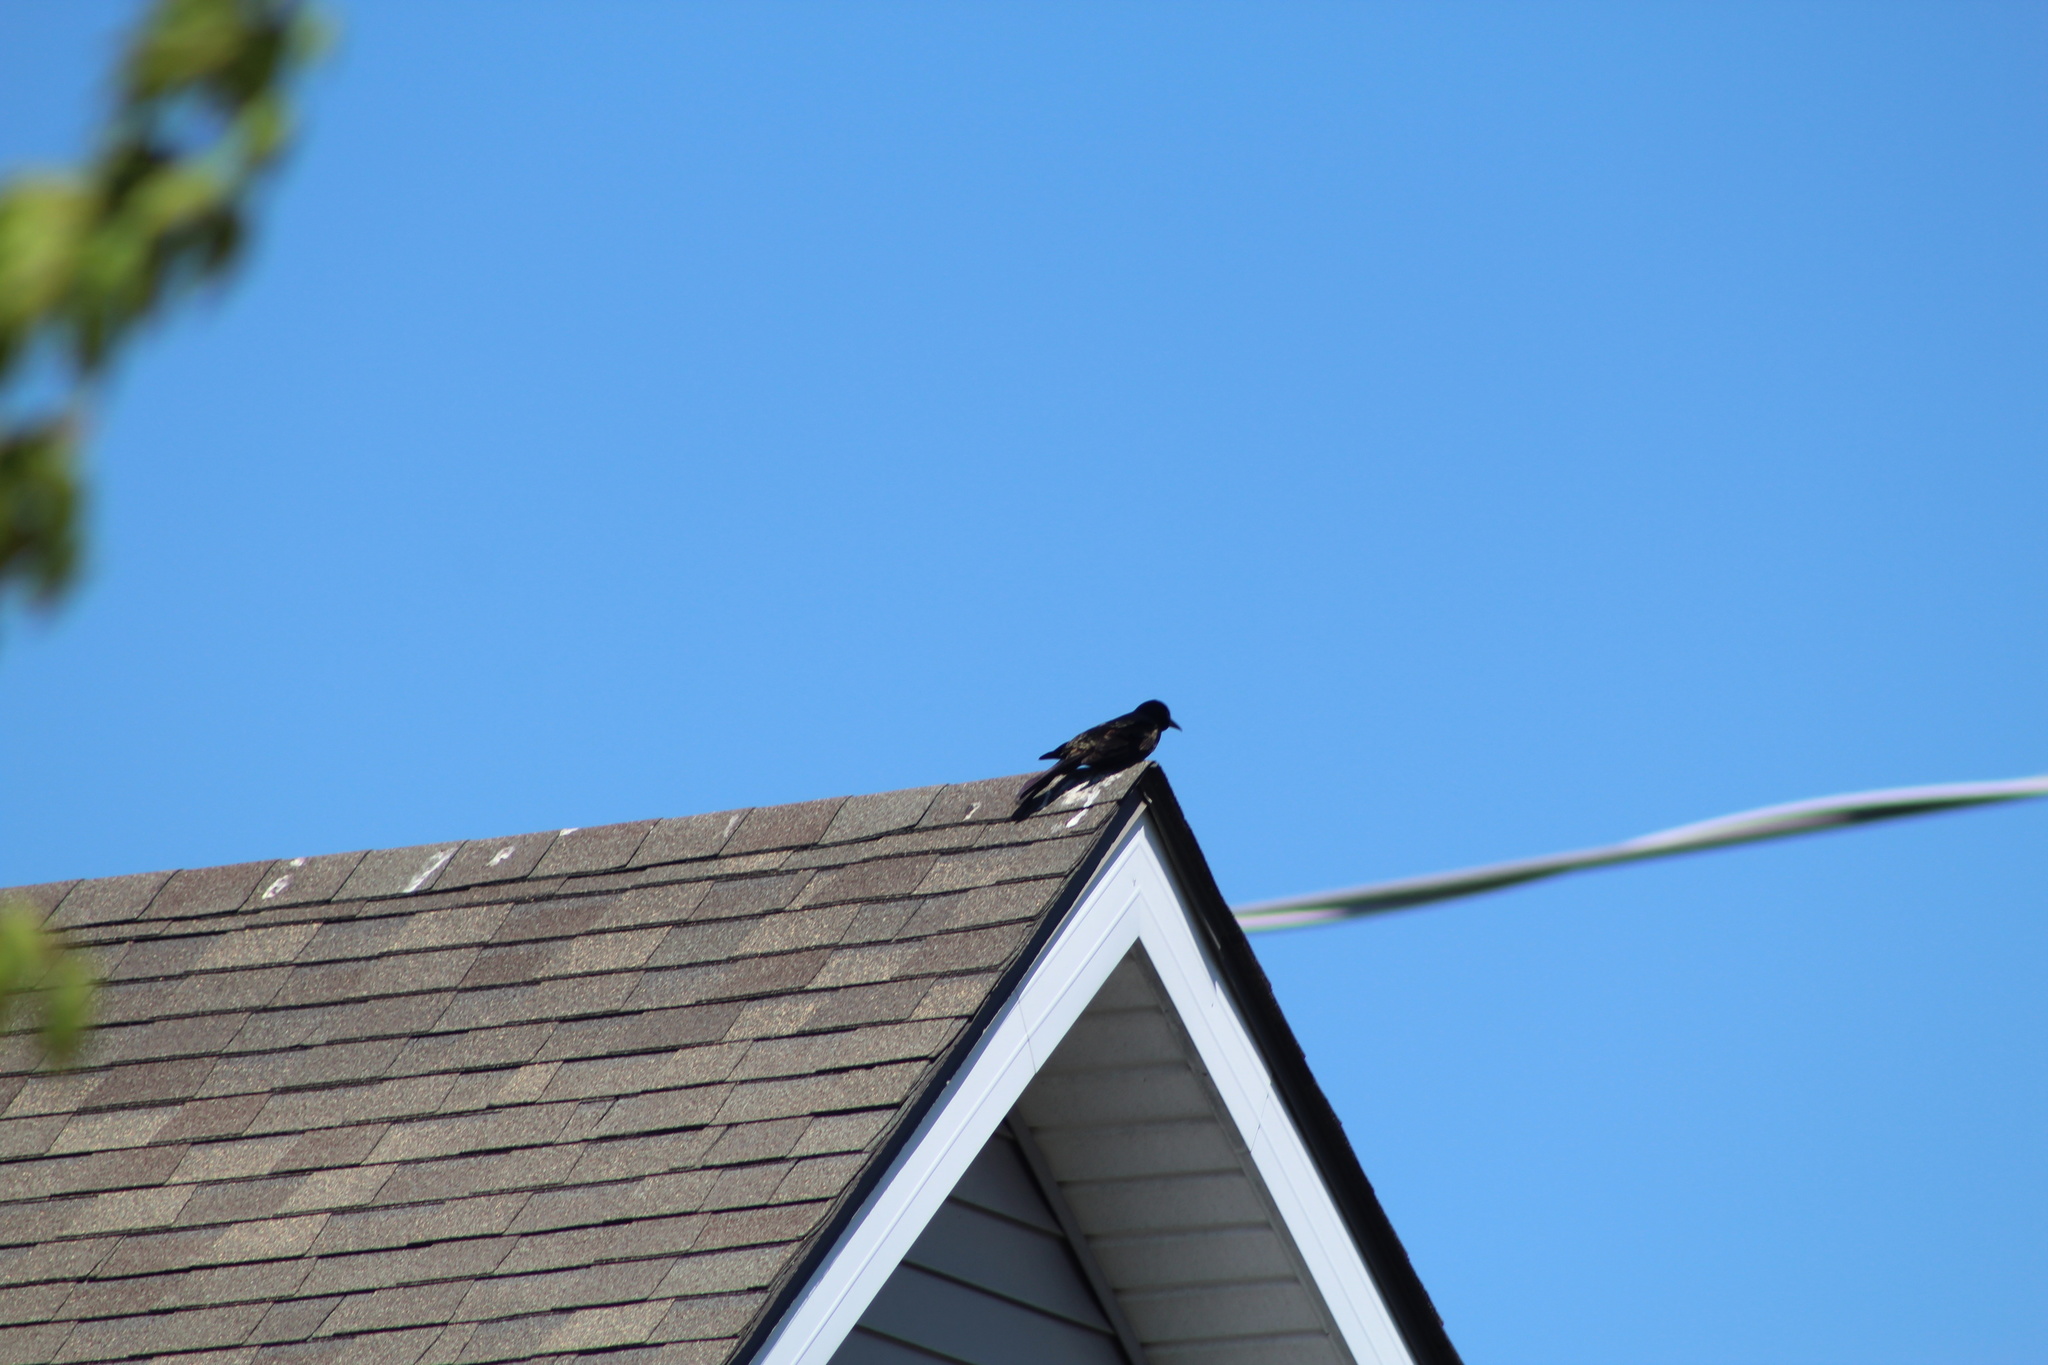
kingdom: Animalia
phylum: Chordata
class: Aves
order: Passeriformes
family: Icteridae
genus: Quiscalus
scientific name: Quiscalus quiscula
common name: Common grackle
